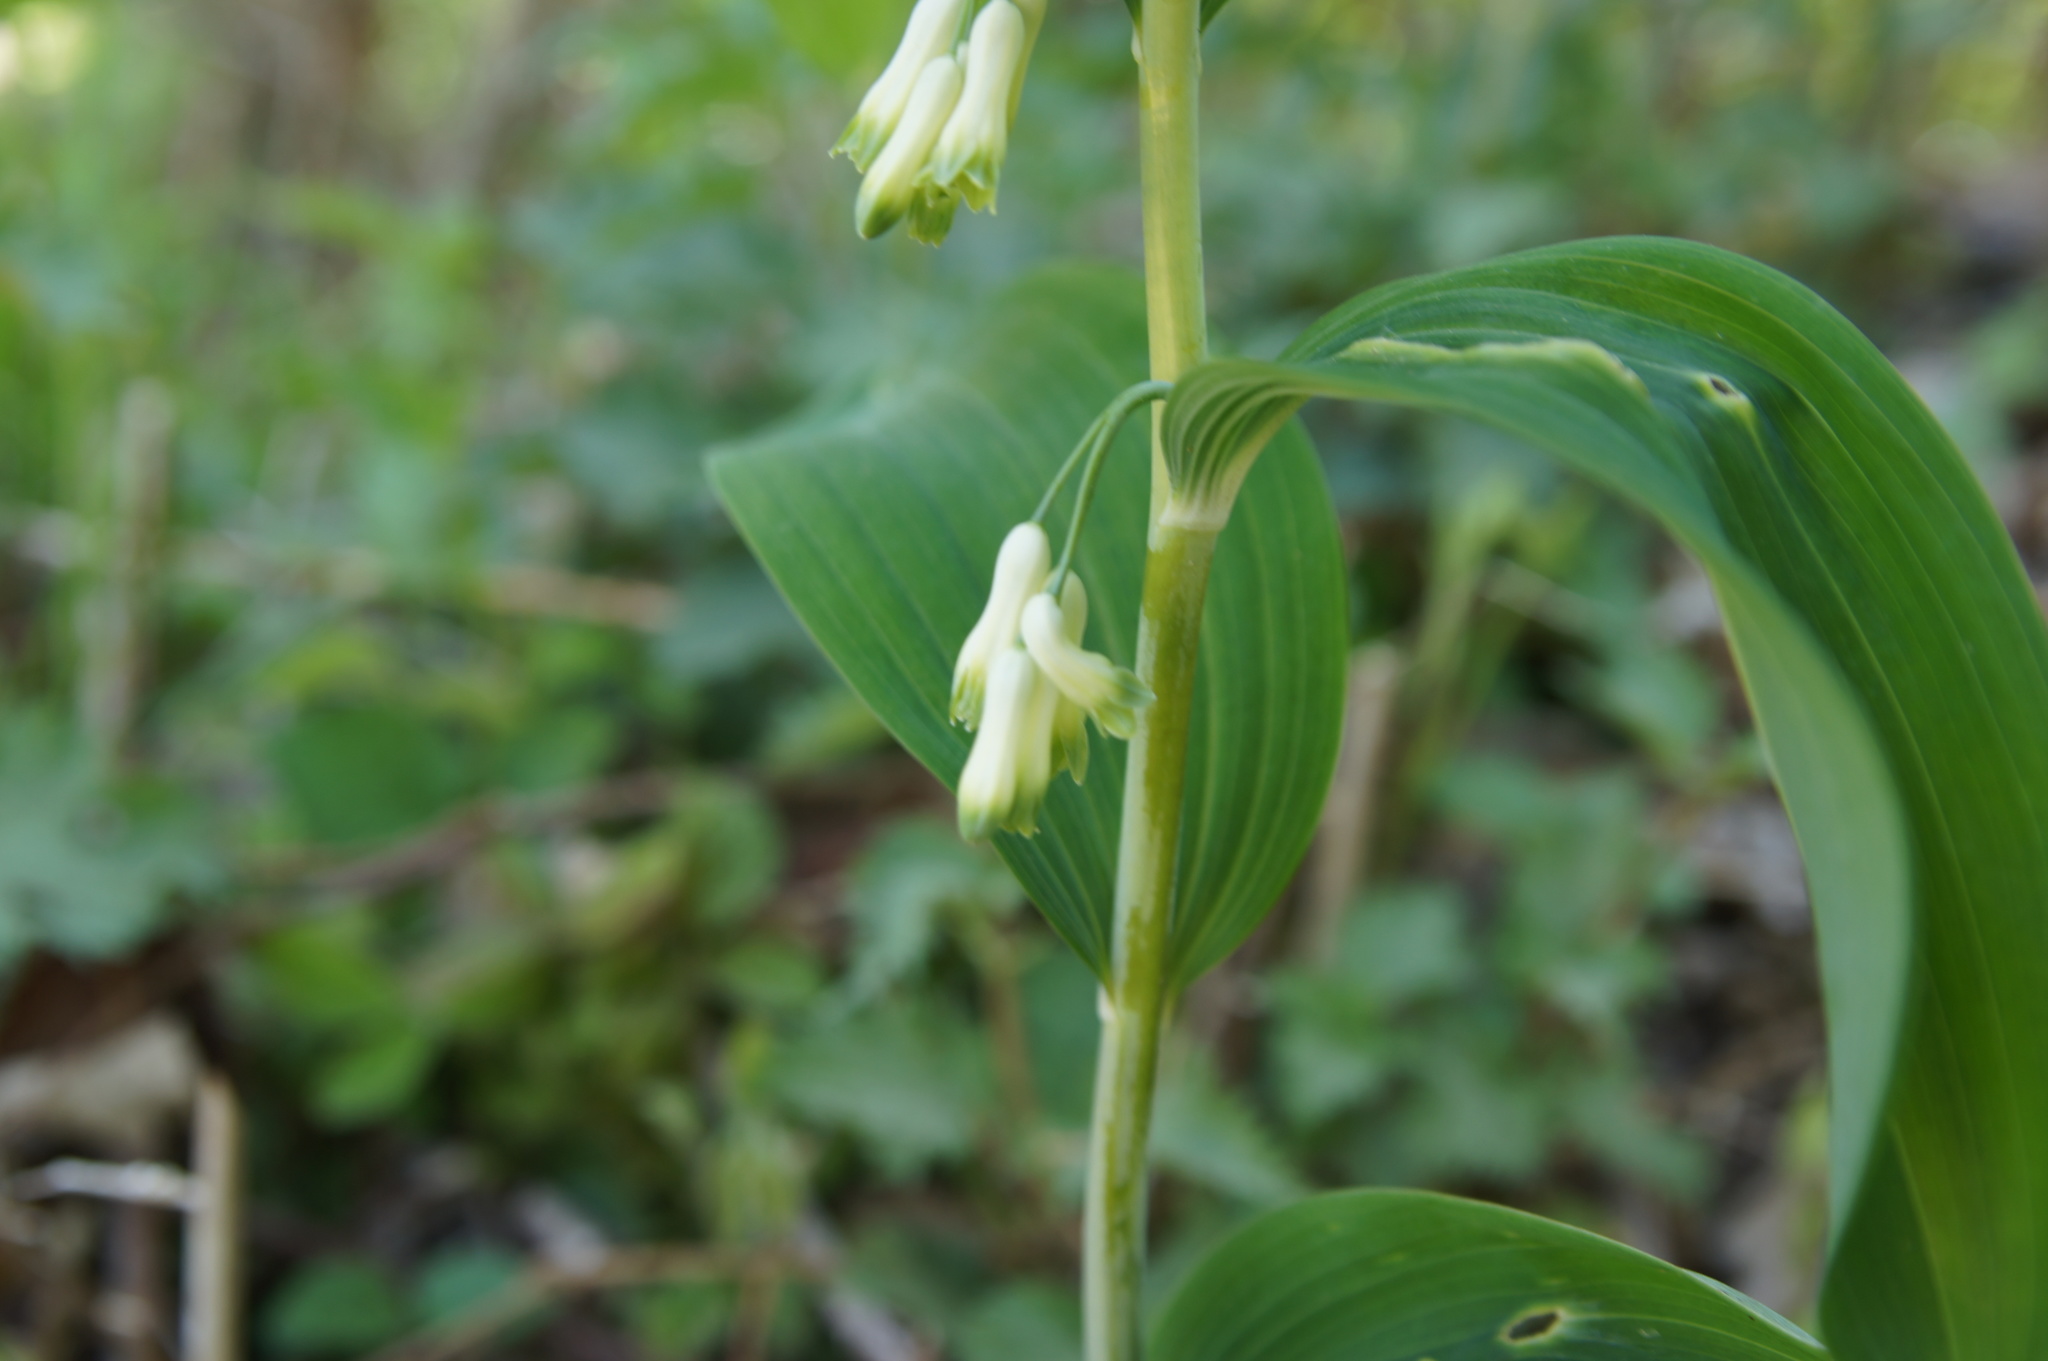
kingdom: Plantae
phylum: Tracheophyta
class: Liliopsida
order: Asparagales
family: Asparagaceae
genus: Polygonatum
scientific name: Polygonatum multiflorum
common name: Solomon's-seal
